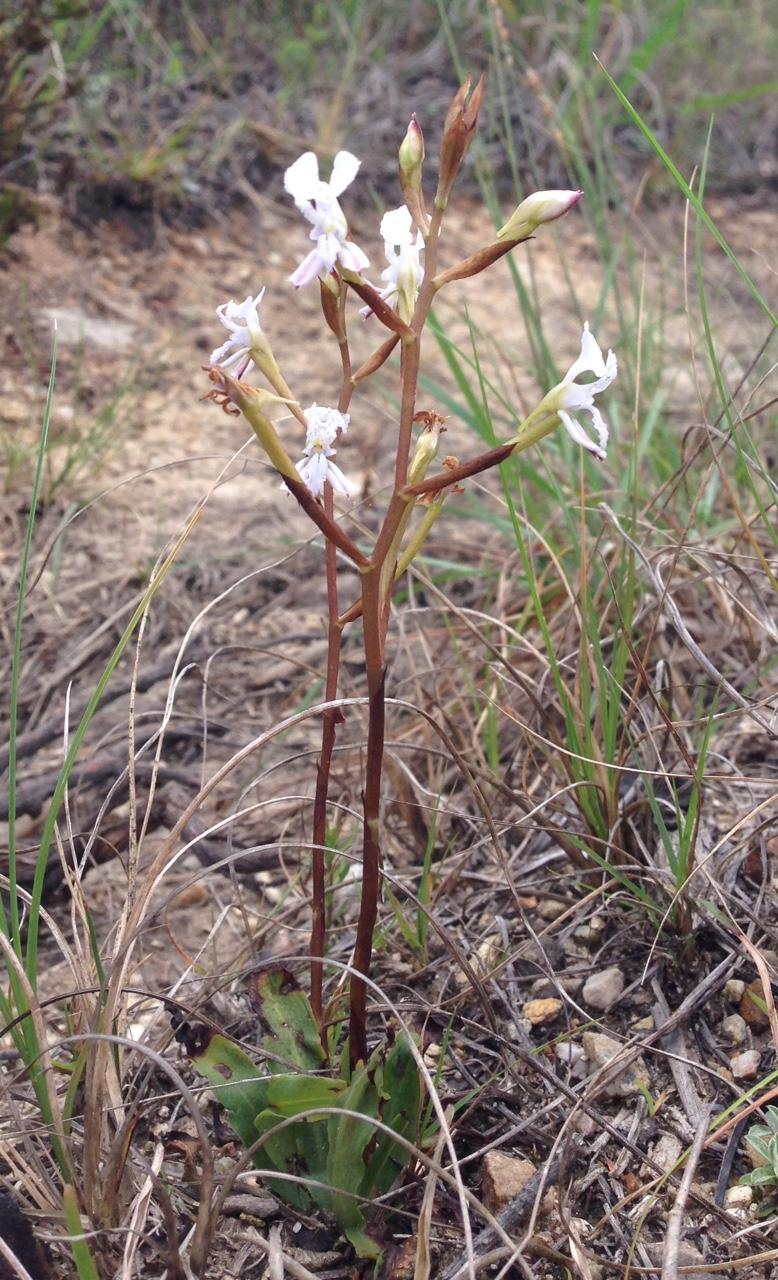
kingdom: Plantae
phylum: Tracheophyta
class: Liliopsida
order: Asparagales
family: Orchidaceae
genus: Disa
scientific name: Disa sagittalis
